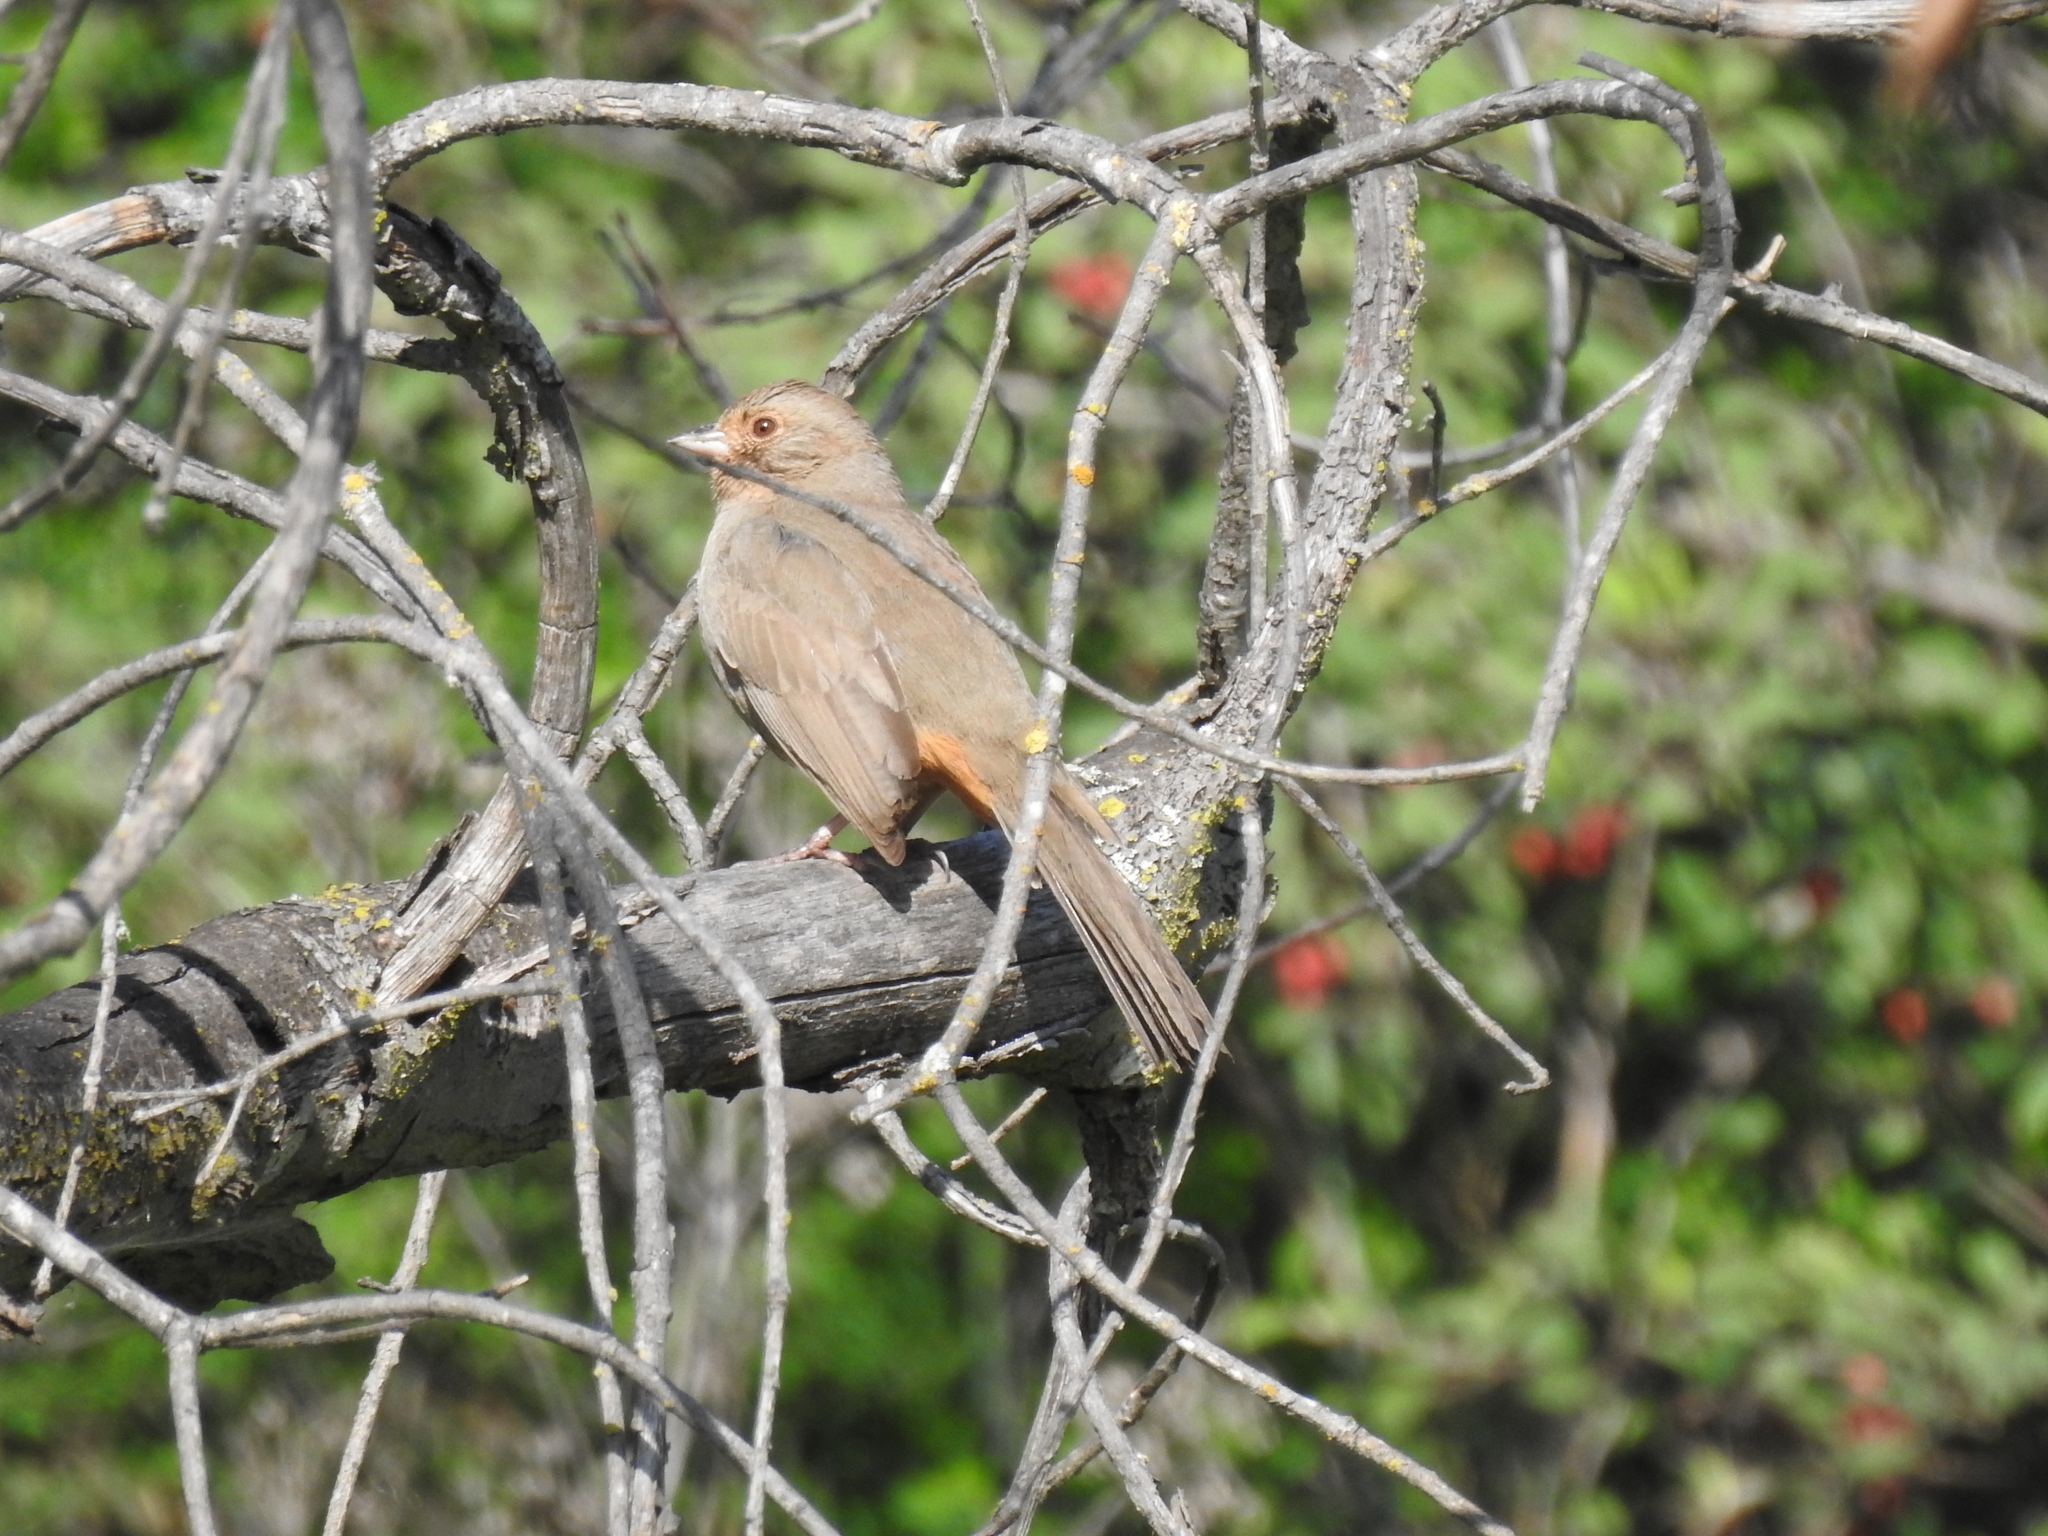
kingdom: Animalia
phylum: Chordata
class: Aves
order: Passeriformes
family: Passerellidae
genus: Melozone
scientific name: Melozone crissalis
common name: California towhee
